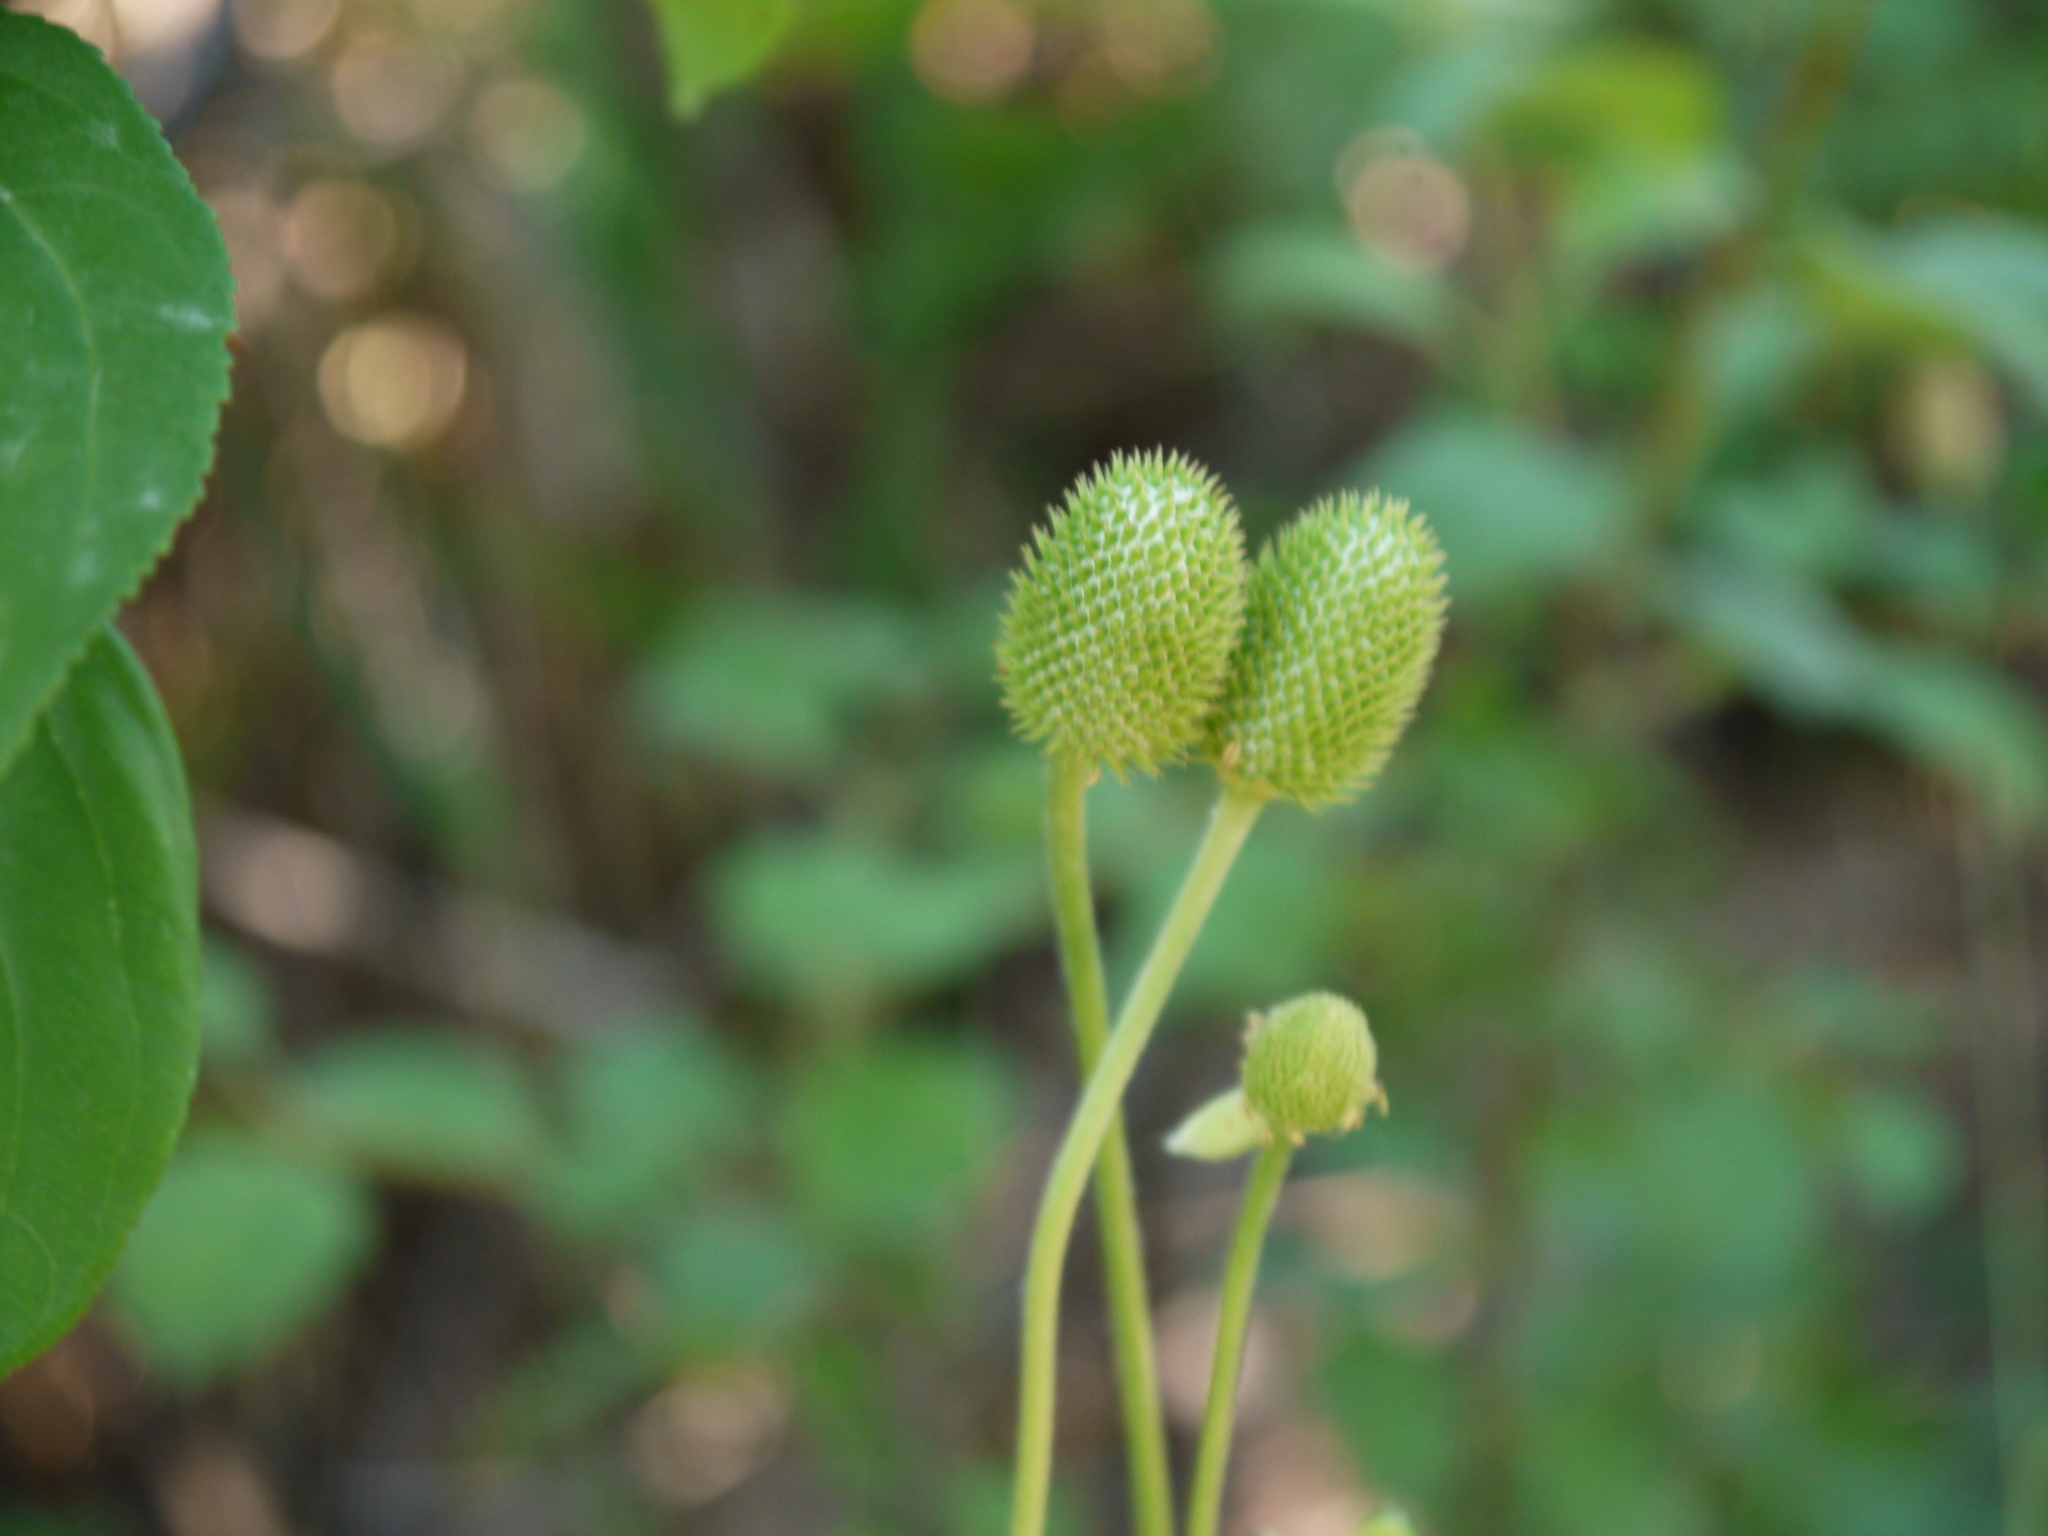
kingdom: Plantae
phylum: Tracheophyta
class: Magnoliopsida
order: Ranunculales
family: Ranunculaceae
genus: Anemone
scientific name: Anemone virginiana
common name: Tall anemone
